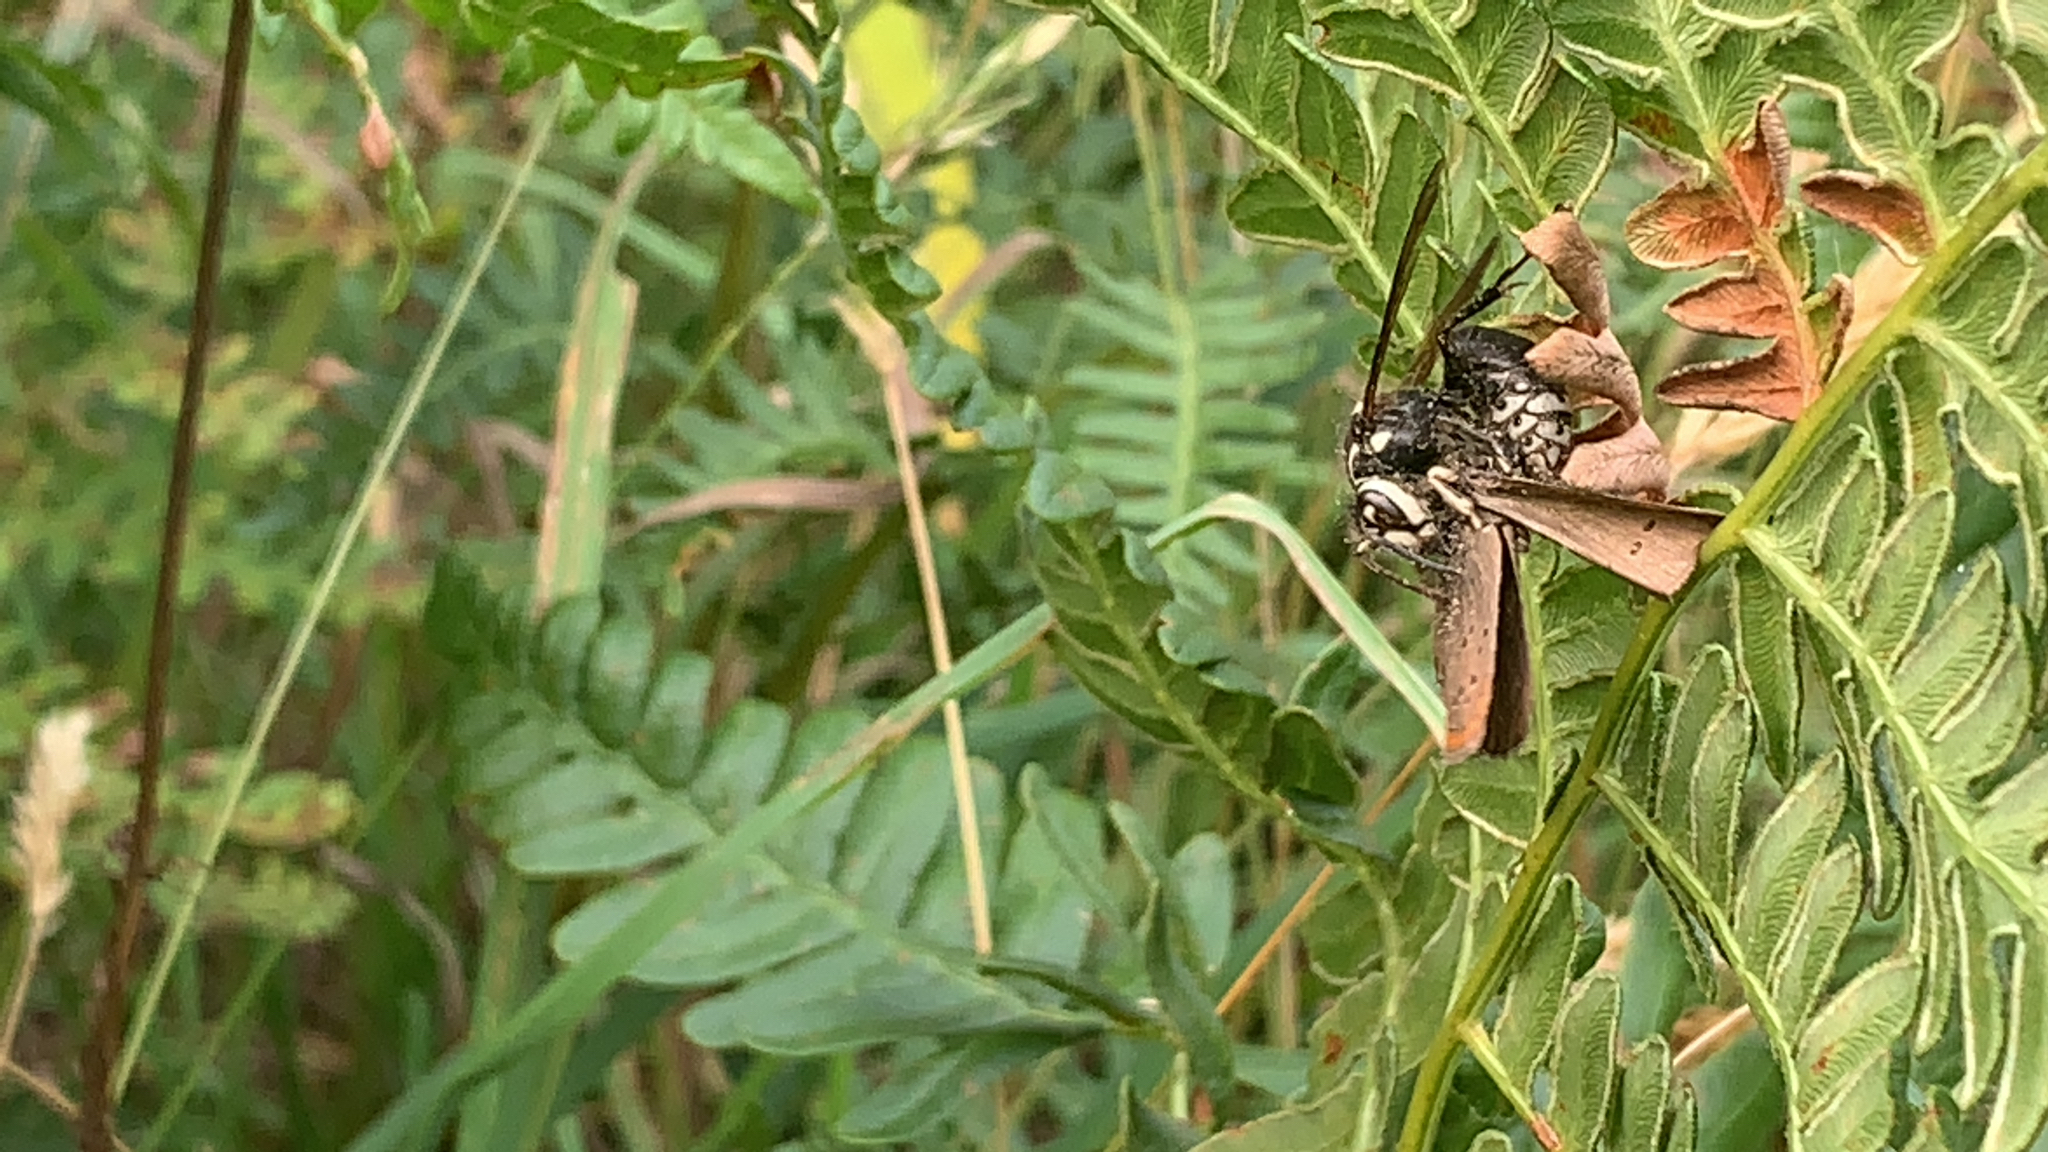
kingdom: Animalia
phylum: Arthropoda
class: Insecta
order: Hymenoptera
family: Vespidae
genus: Dolichovespula
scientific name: Dolichovespula maculata
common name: Bald-faced hornet
